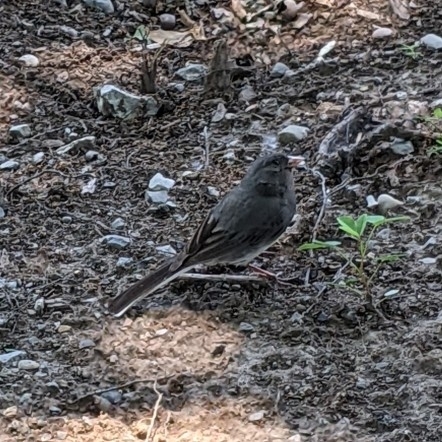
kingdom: Animalia
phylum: Chordata
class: Aves
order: Passeriformes
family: Passerellidae
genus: Junco
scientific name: Junco hyemalis
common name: Dark-eyed junco
